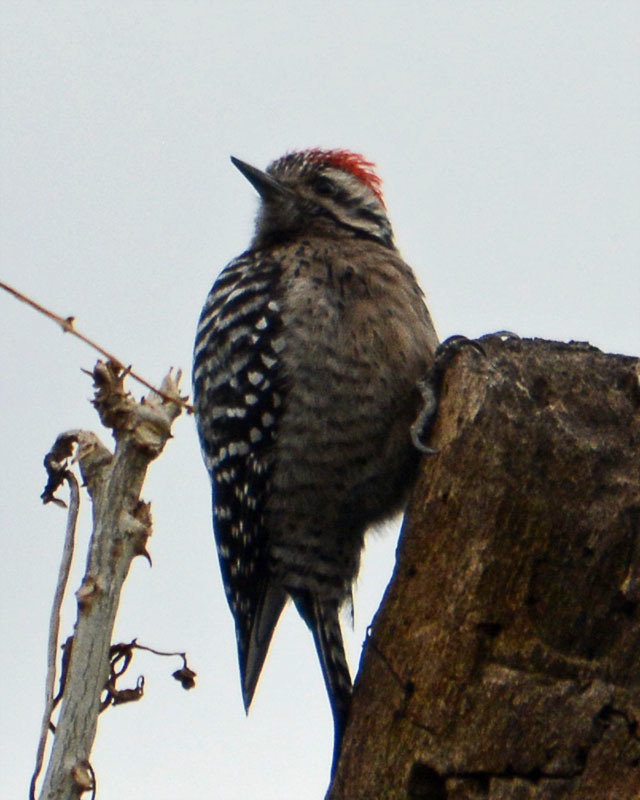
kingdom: Animalia
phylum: Chordata
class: Aves
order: Piciformes
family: Picidae
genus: Dryobates
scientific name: Dryobates scalaris
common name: Ladder-backed woodpecker
